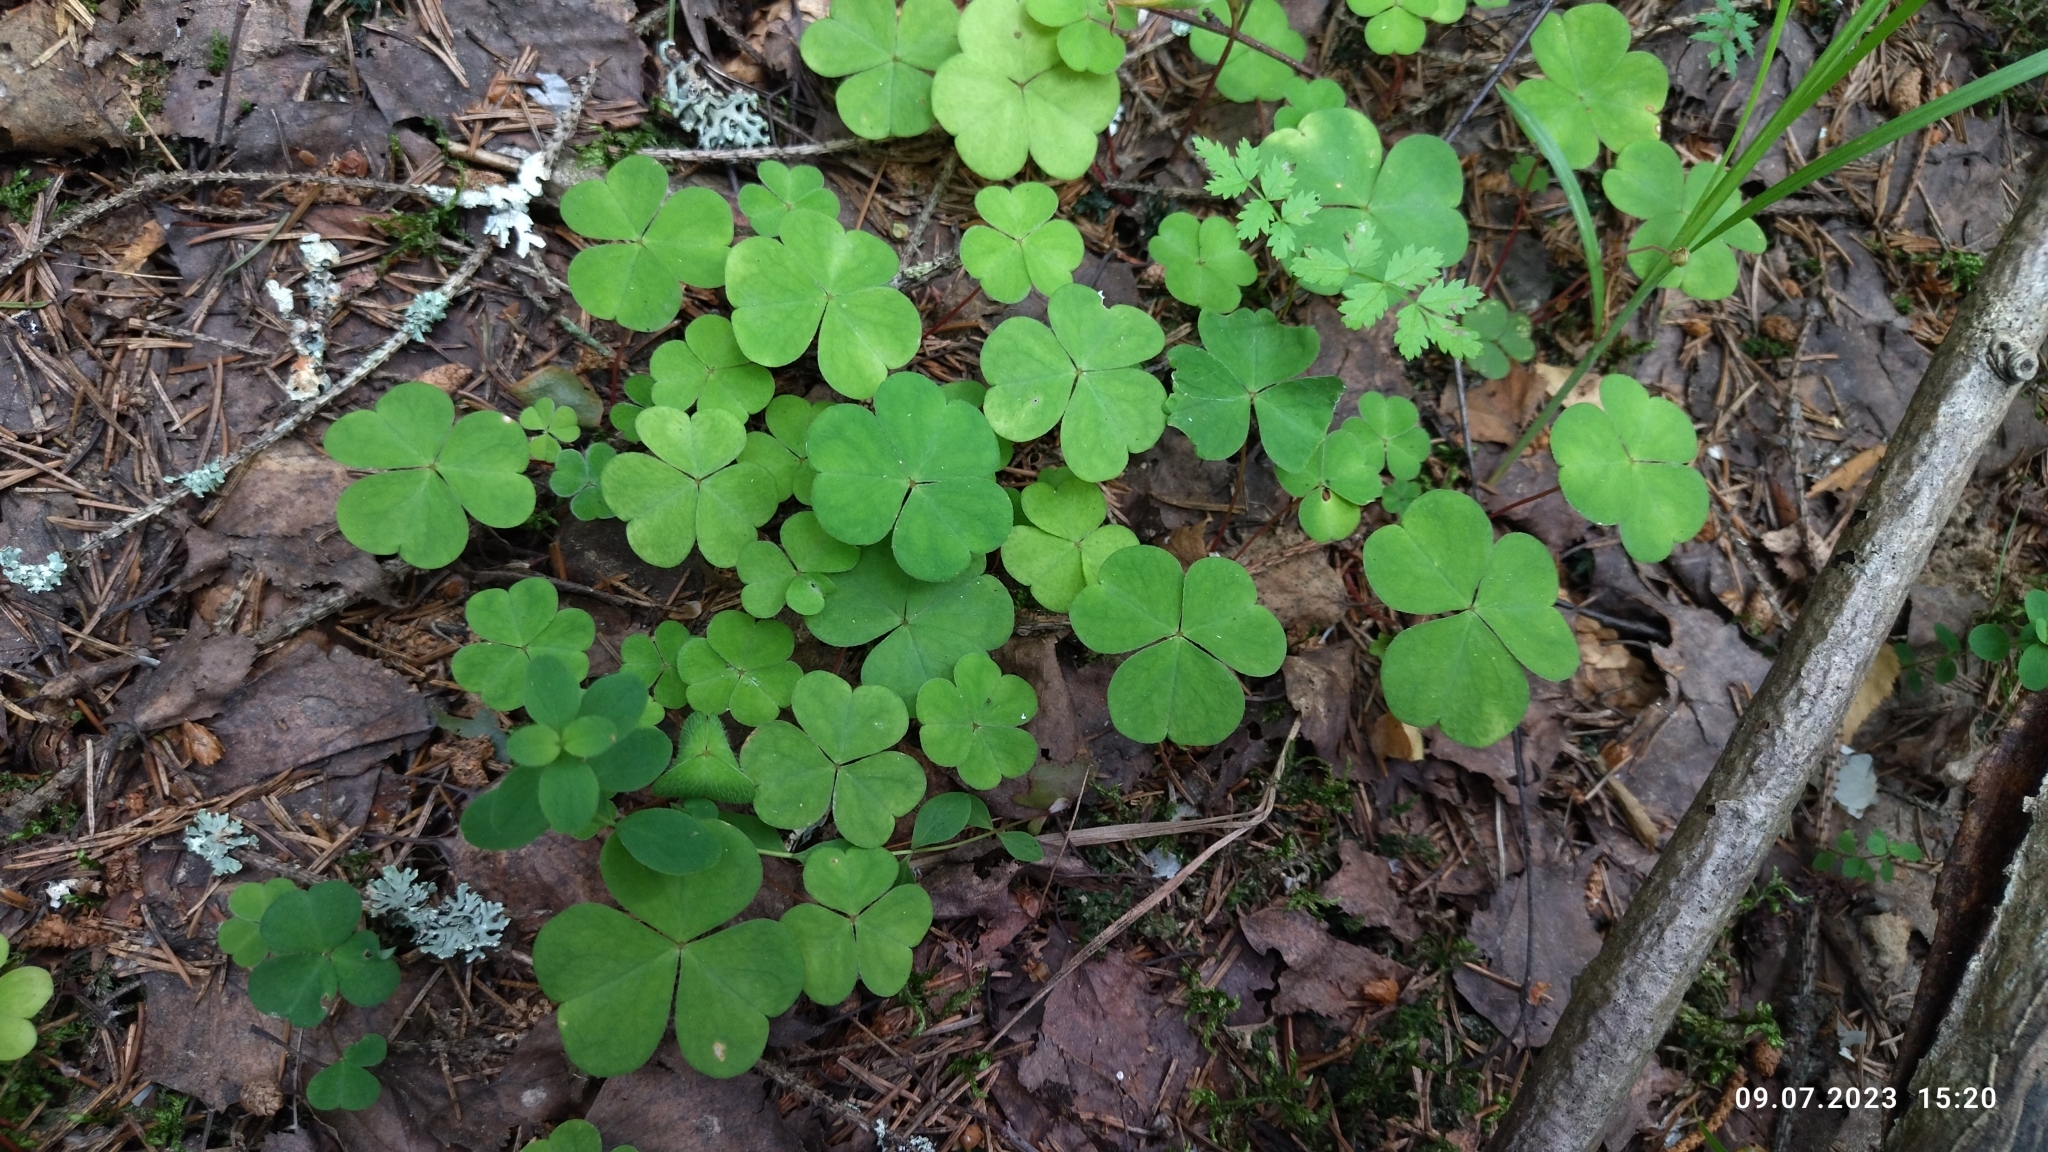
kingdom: Plantae
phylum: Tracheophyta
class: Magnoliopsida
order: Oxalidales
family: Oxalidaceae
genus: Oxalis
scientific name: Oxalis acetosella
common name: Wood-sorrel
